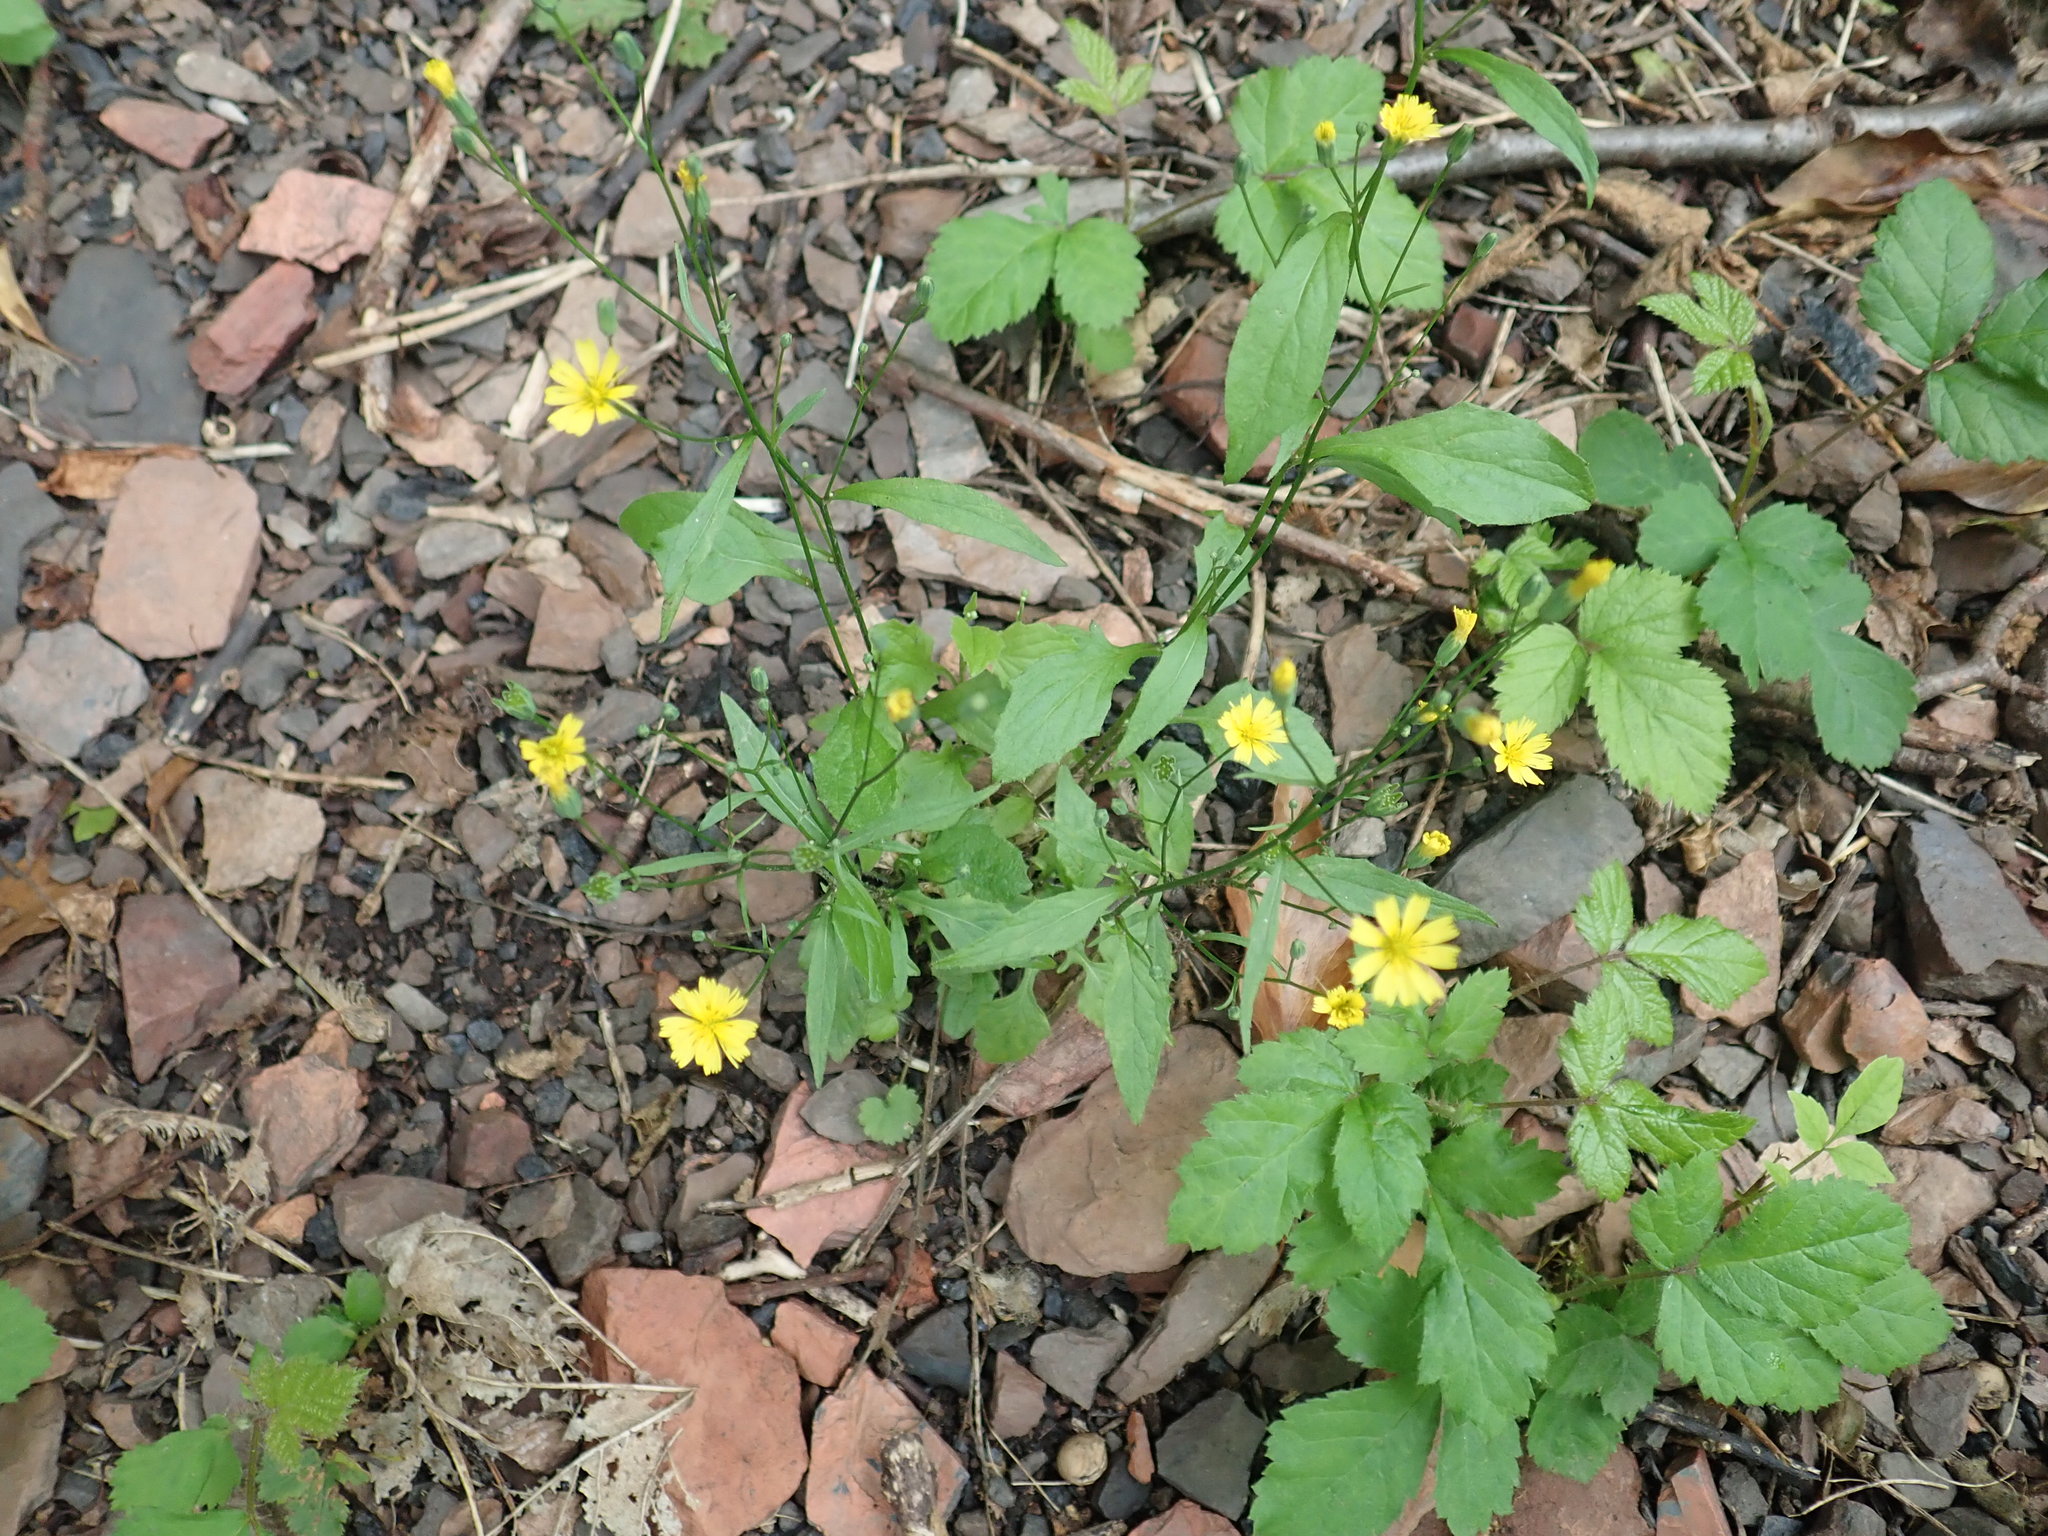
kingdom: Plantae
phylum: Tracheophyta
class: Magnoliopsida
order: Asterales
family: Asteraceae
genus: Lapsana
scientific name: Lapsana communis
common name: Nipplewort
